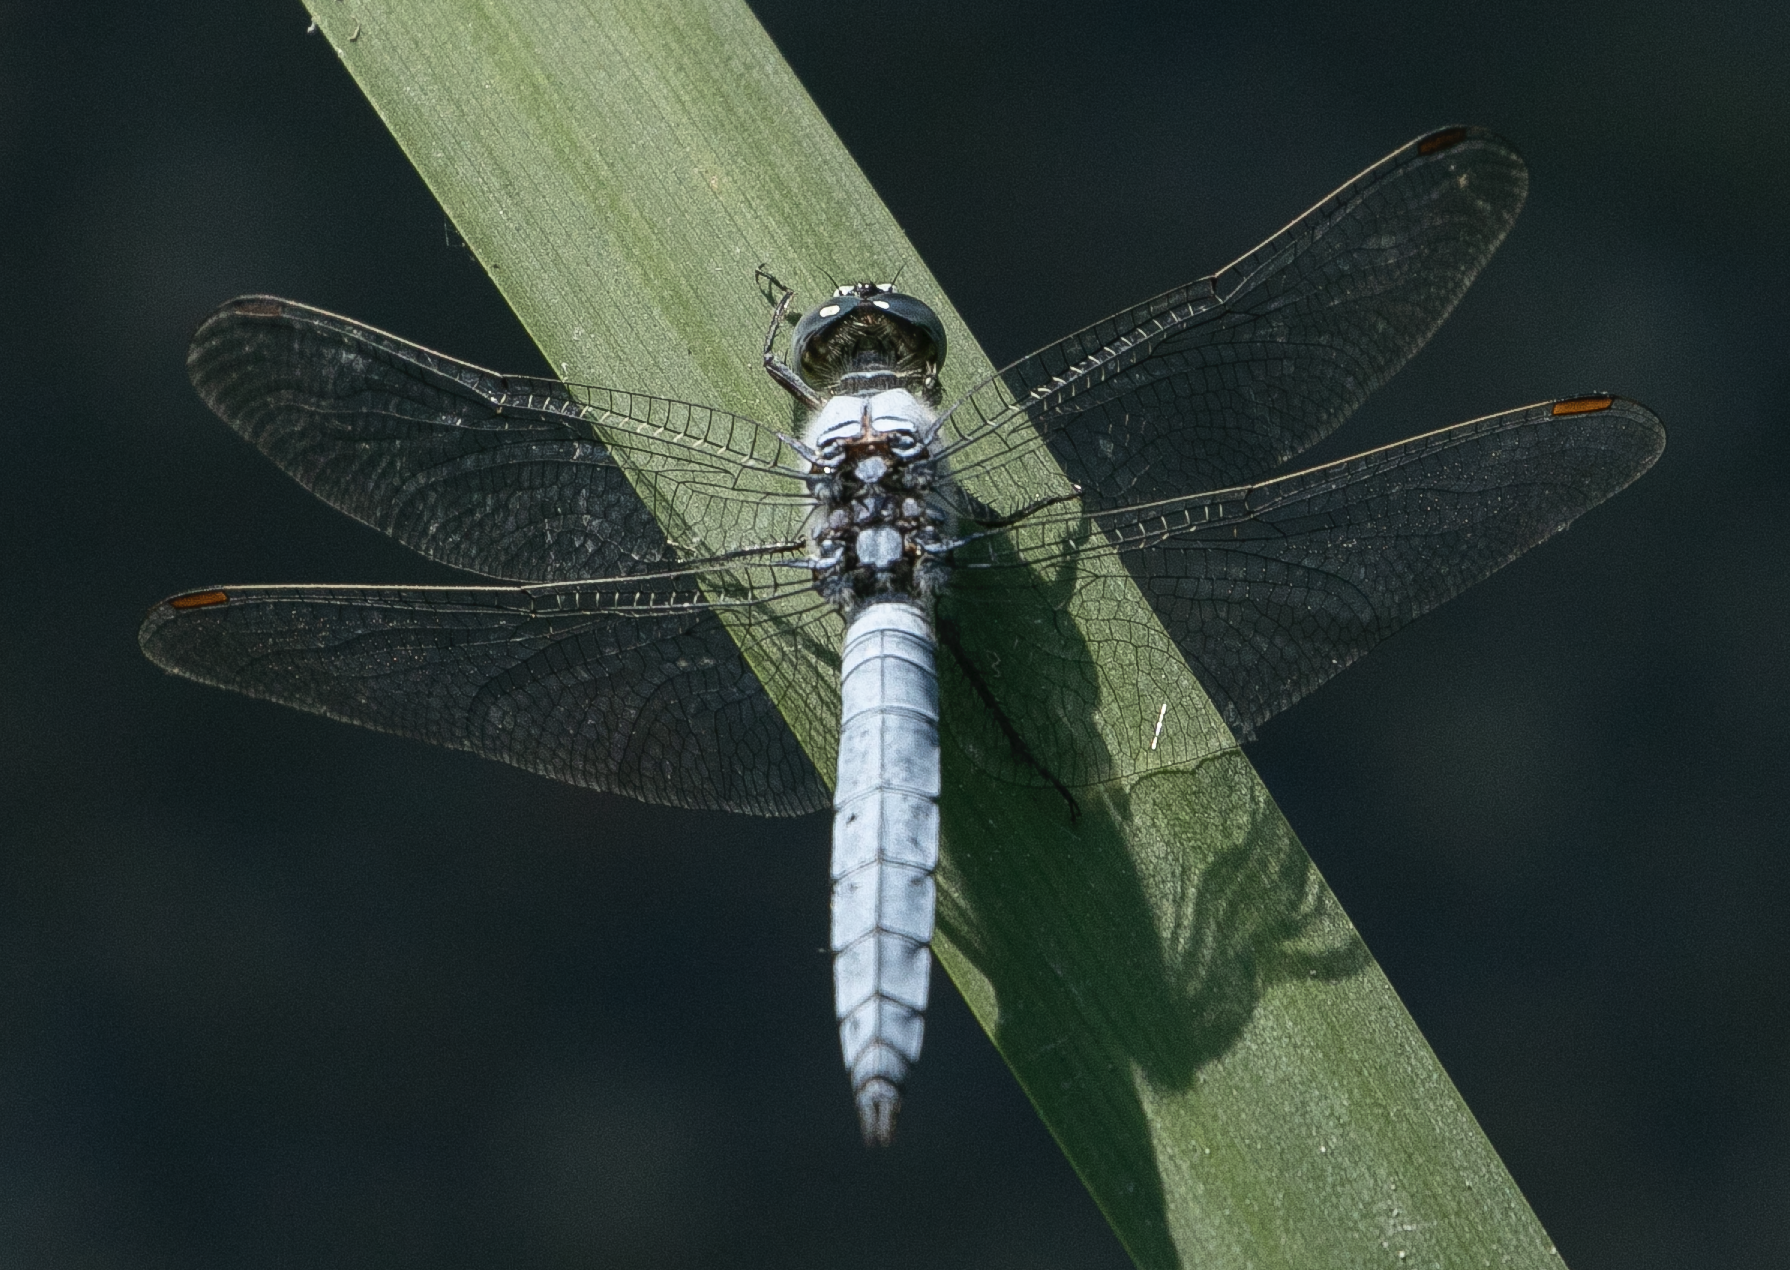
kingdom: Animalia
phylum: Arthropoda
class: Insecta
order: Odonata
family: Libellulidae
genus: Orthetrum
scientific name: Orthetrum brunneum
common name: Southern skimmer
